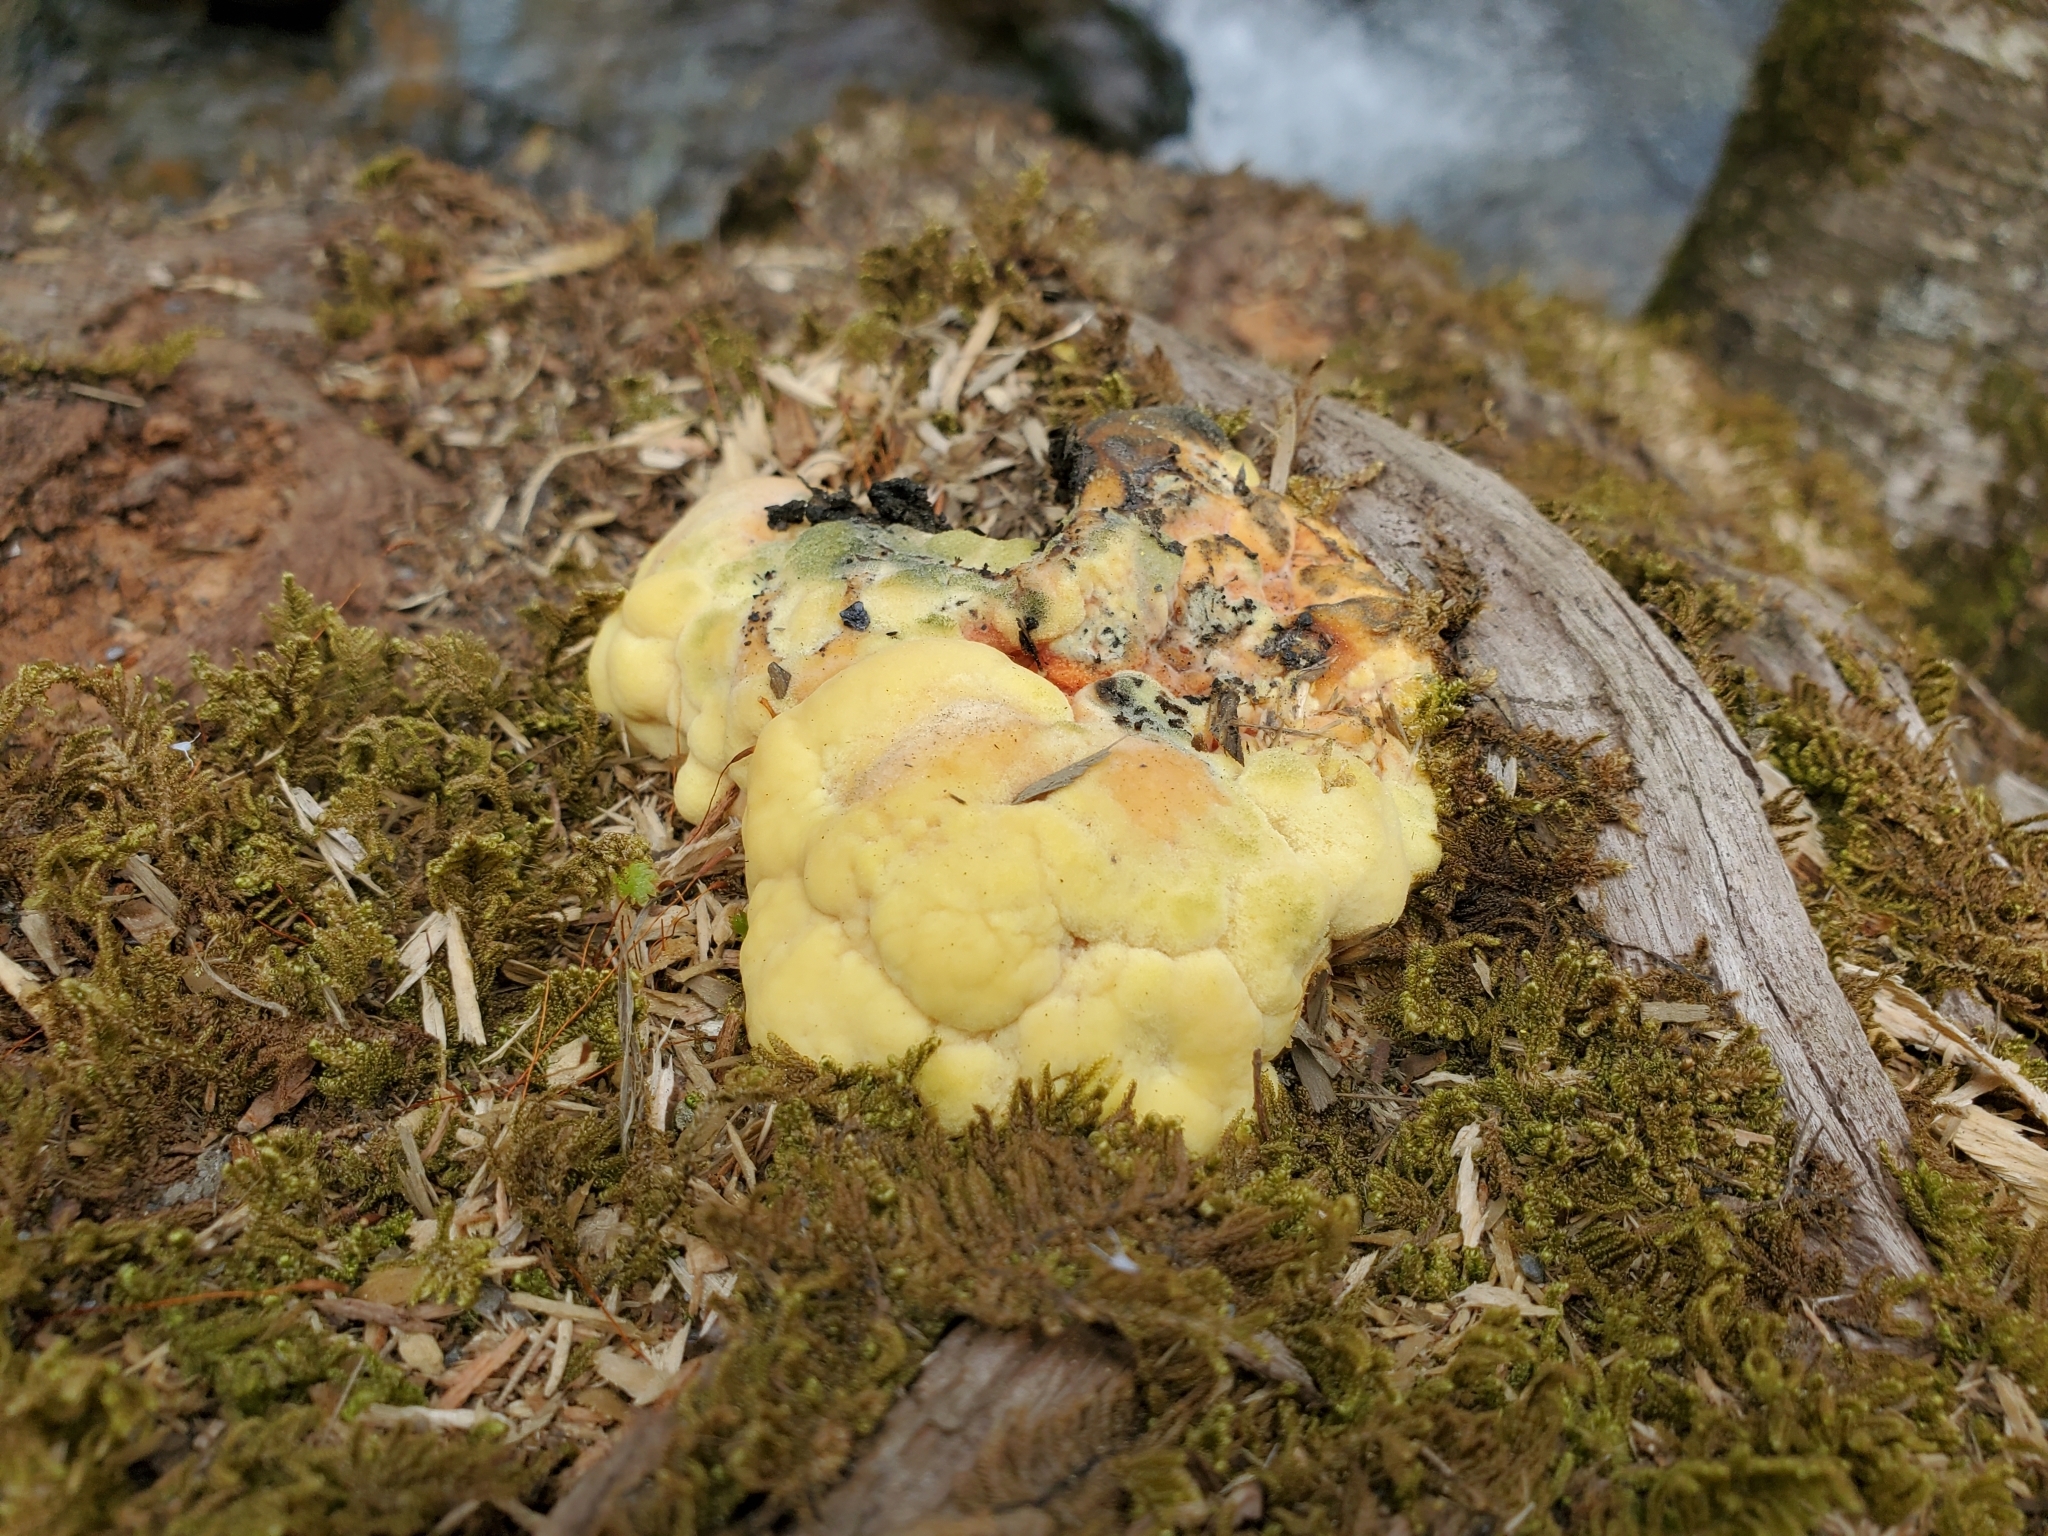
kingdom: Protozoa
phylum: Mycetozoa
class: Myxomycetes
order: Physarales
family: Physaraceae
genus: Fuligo
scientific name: Fuligo septica
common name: Dog vomit slime mold
